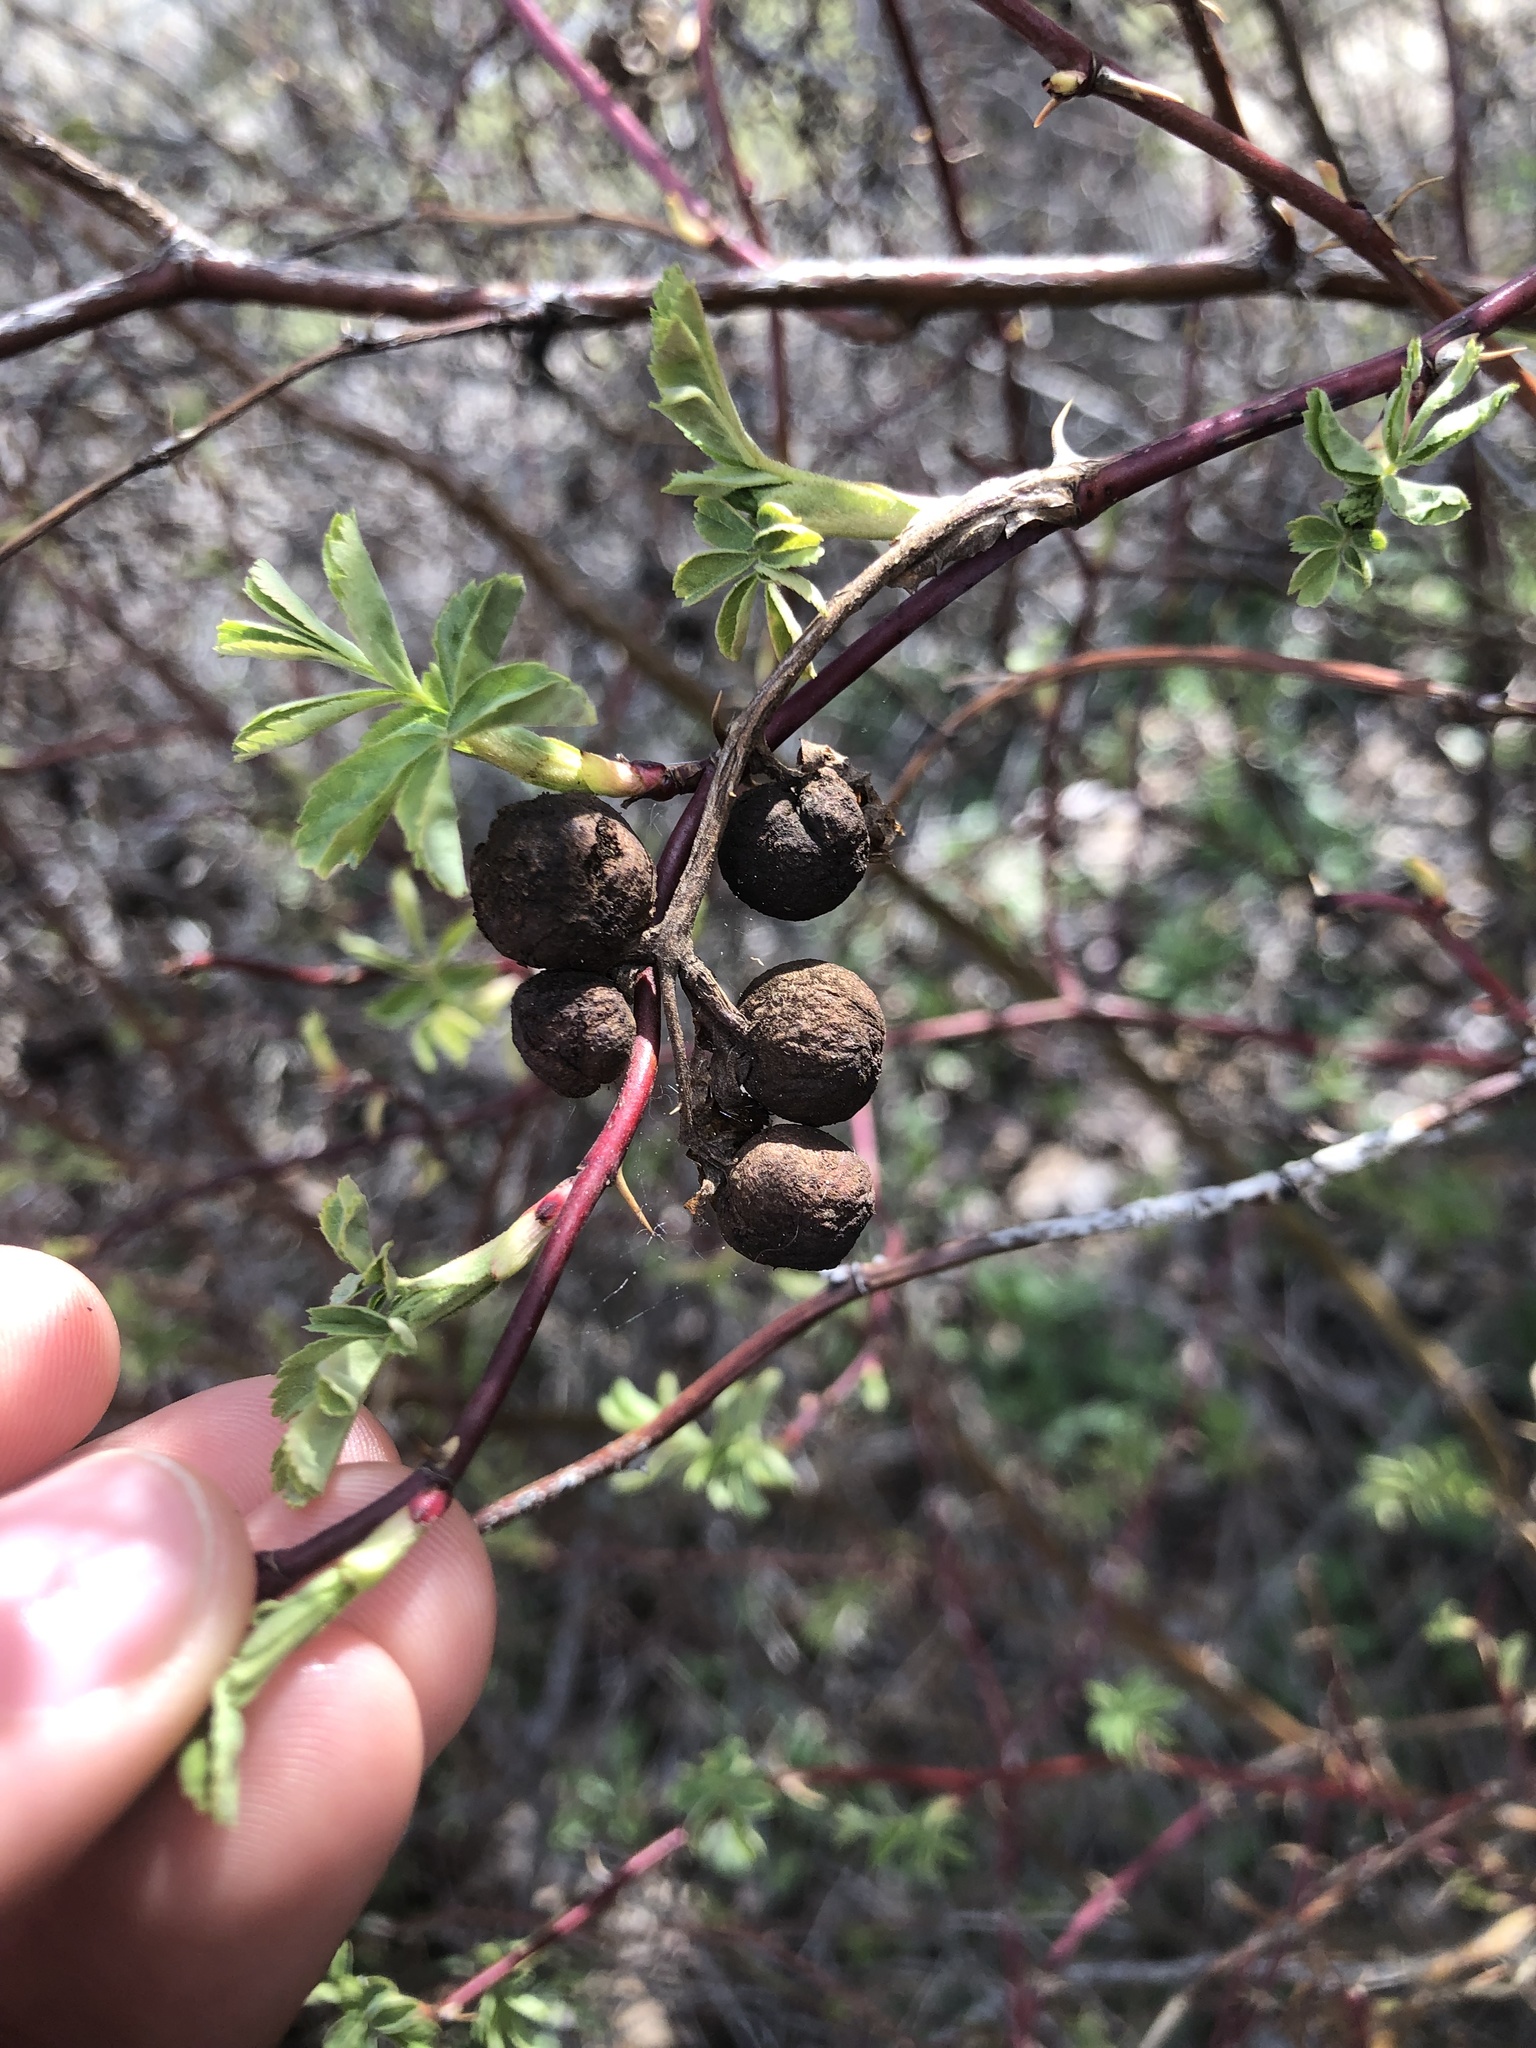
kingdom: Animalia
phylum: Arthropoda
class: Insecta
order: Hymenoptera
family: Cynipidae
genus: Diplolepis
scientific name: Diplolepis variabilis
